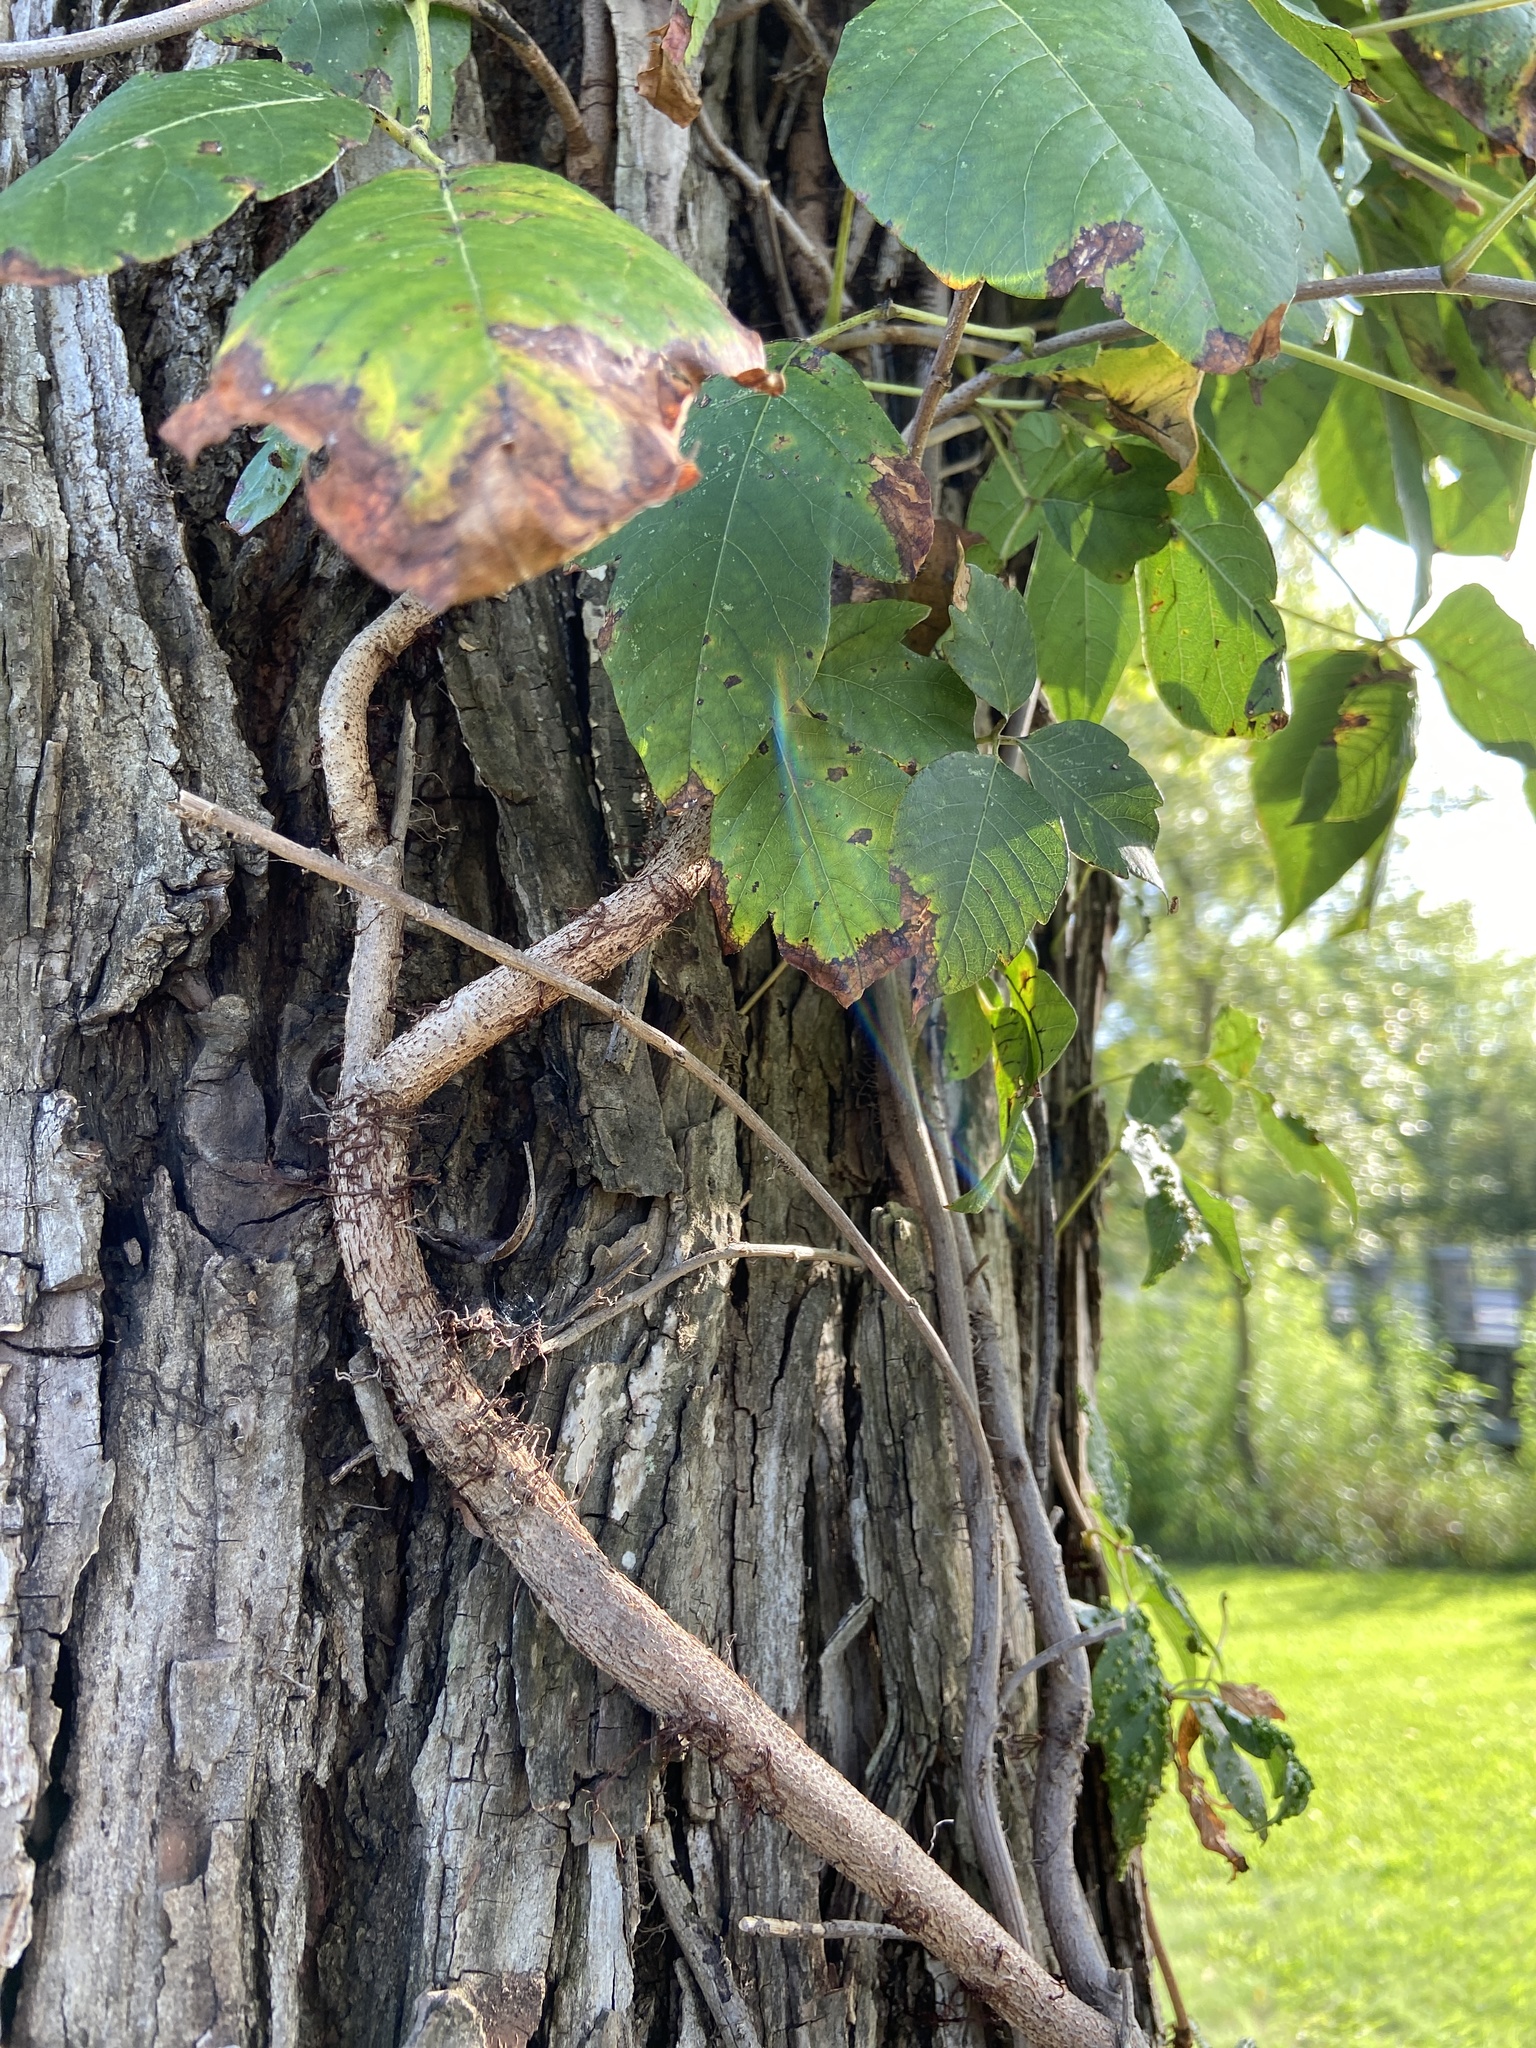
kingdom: Plantae
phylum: Tracheophyta
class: Magnoliopsida
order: Sapindales
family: Anacardiaceae
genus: Toxicodendron
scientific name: Toxicodendron radicans
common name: Poison ivy
